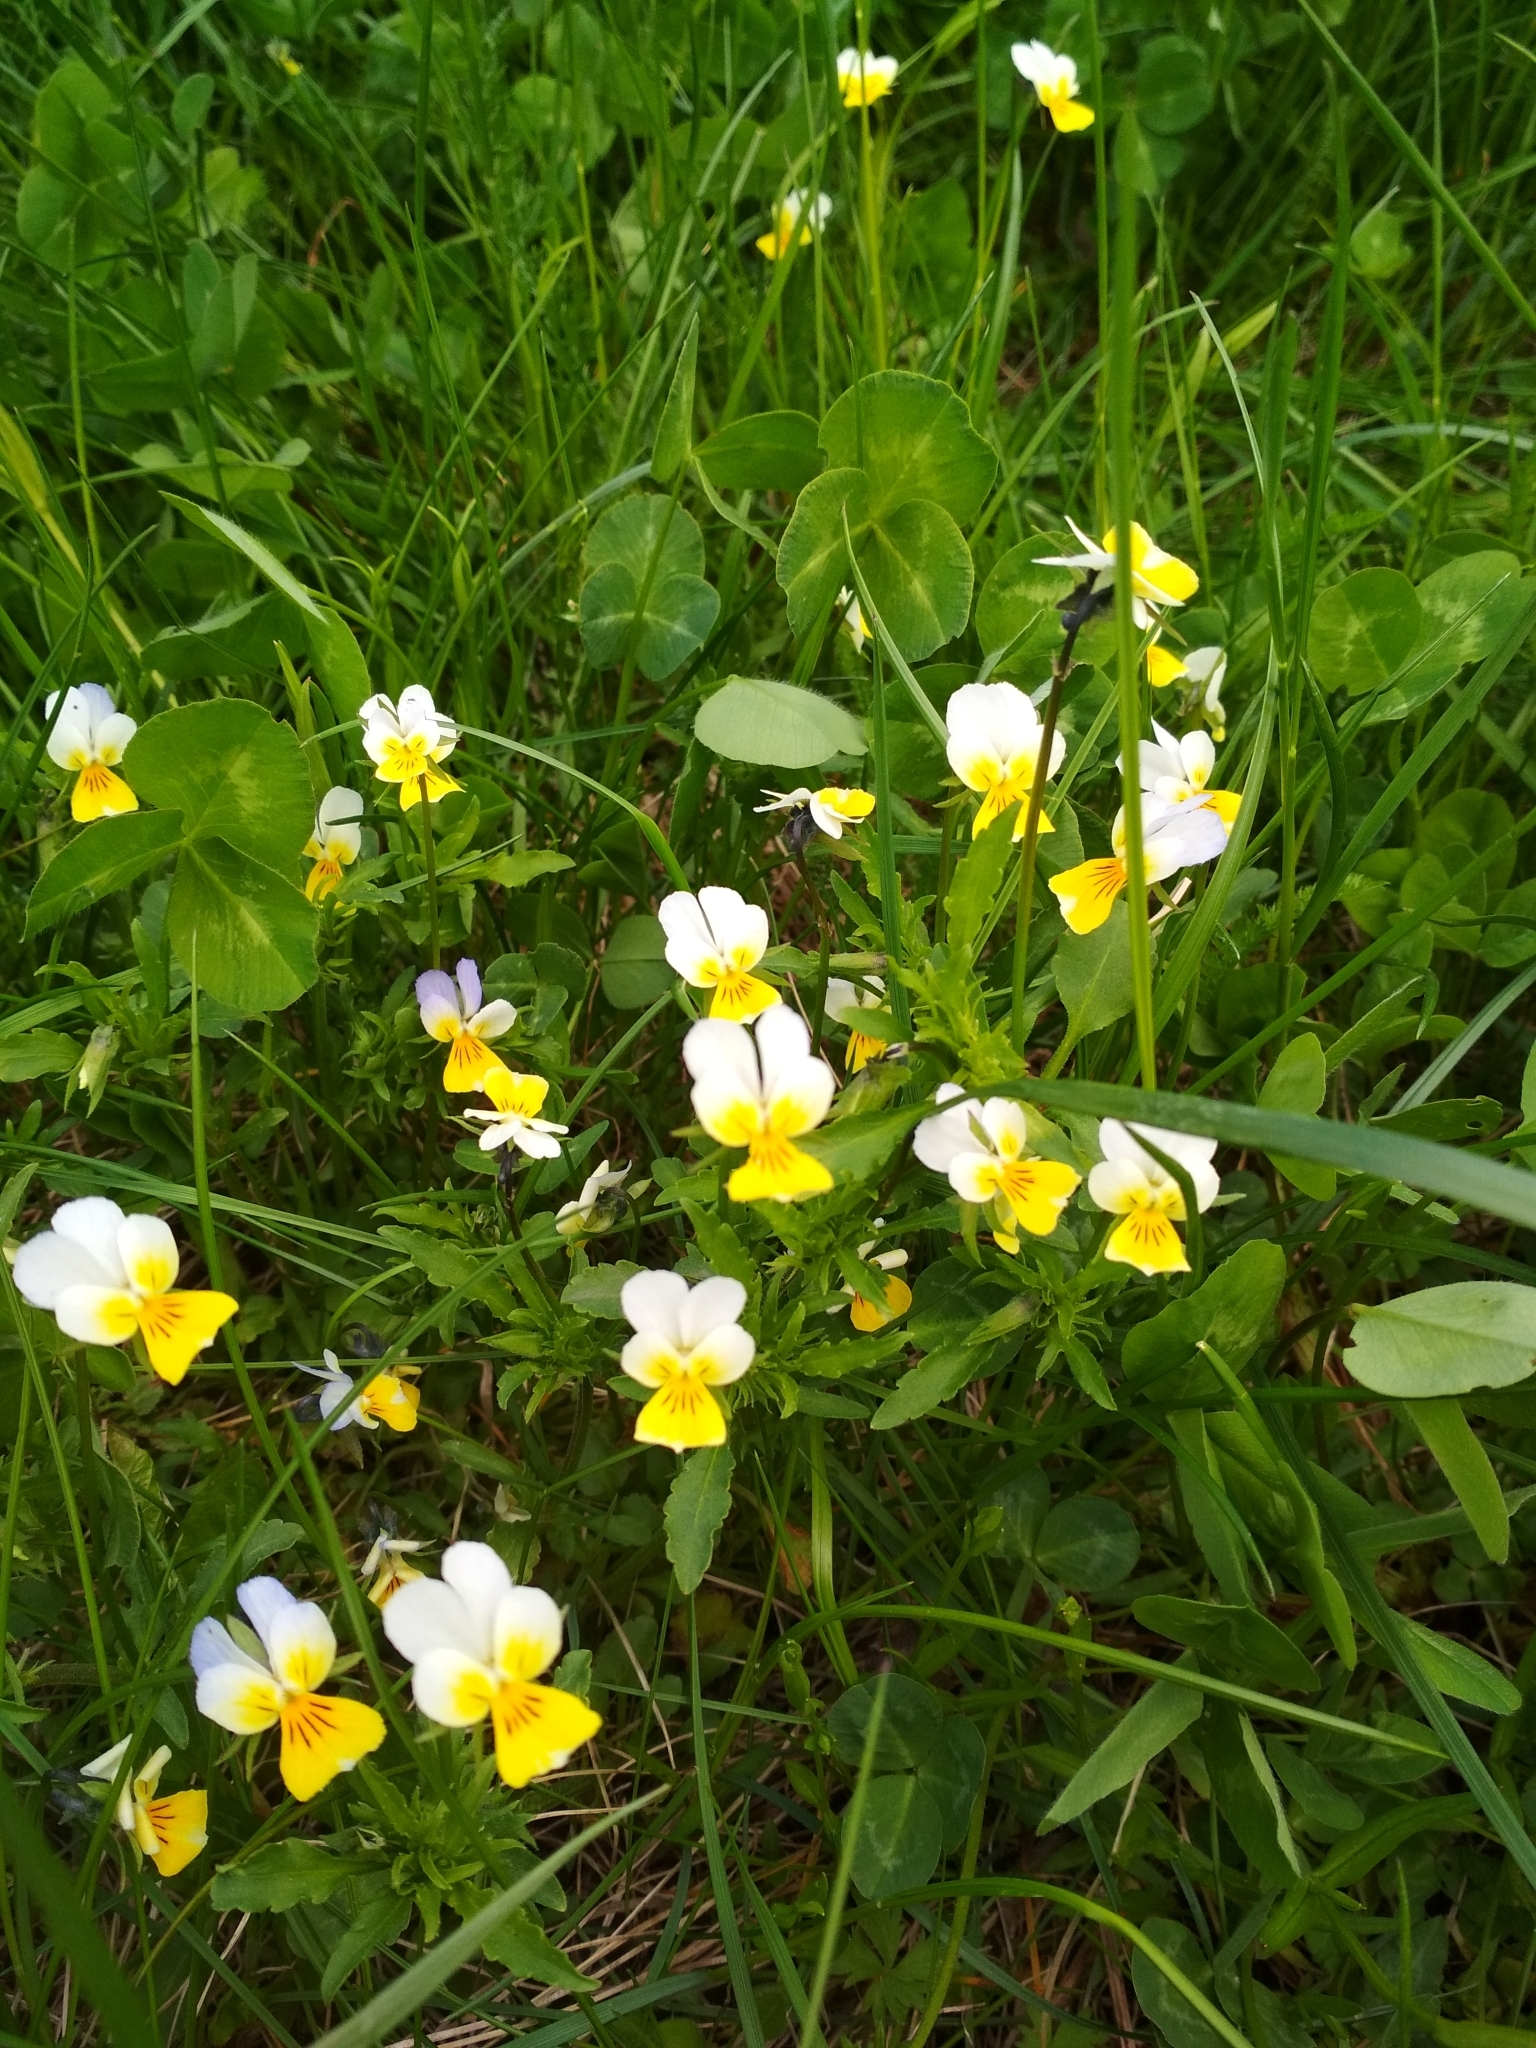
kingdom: Plantae
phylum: Tracheophyta
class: Magnoliopsida
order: Malpighiales
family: Violaceae
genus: Viola
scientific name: Viola tricolor
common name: Pansy
